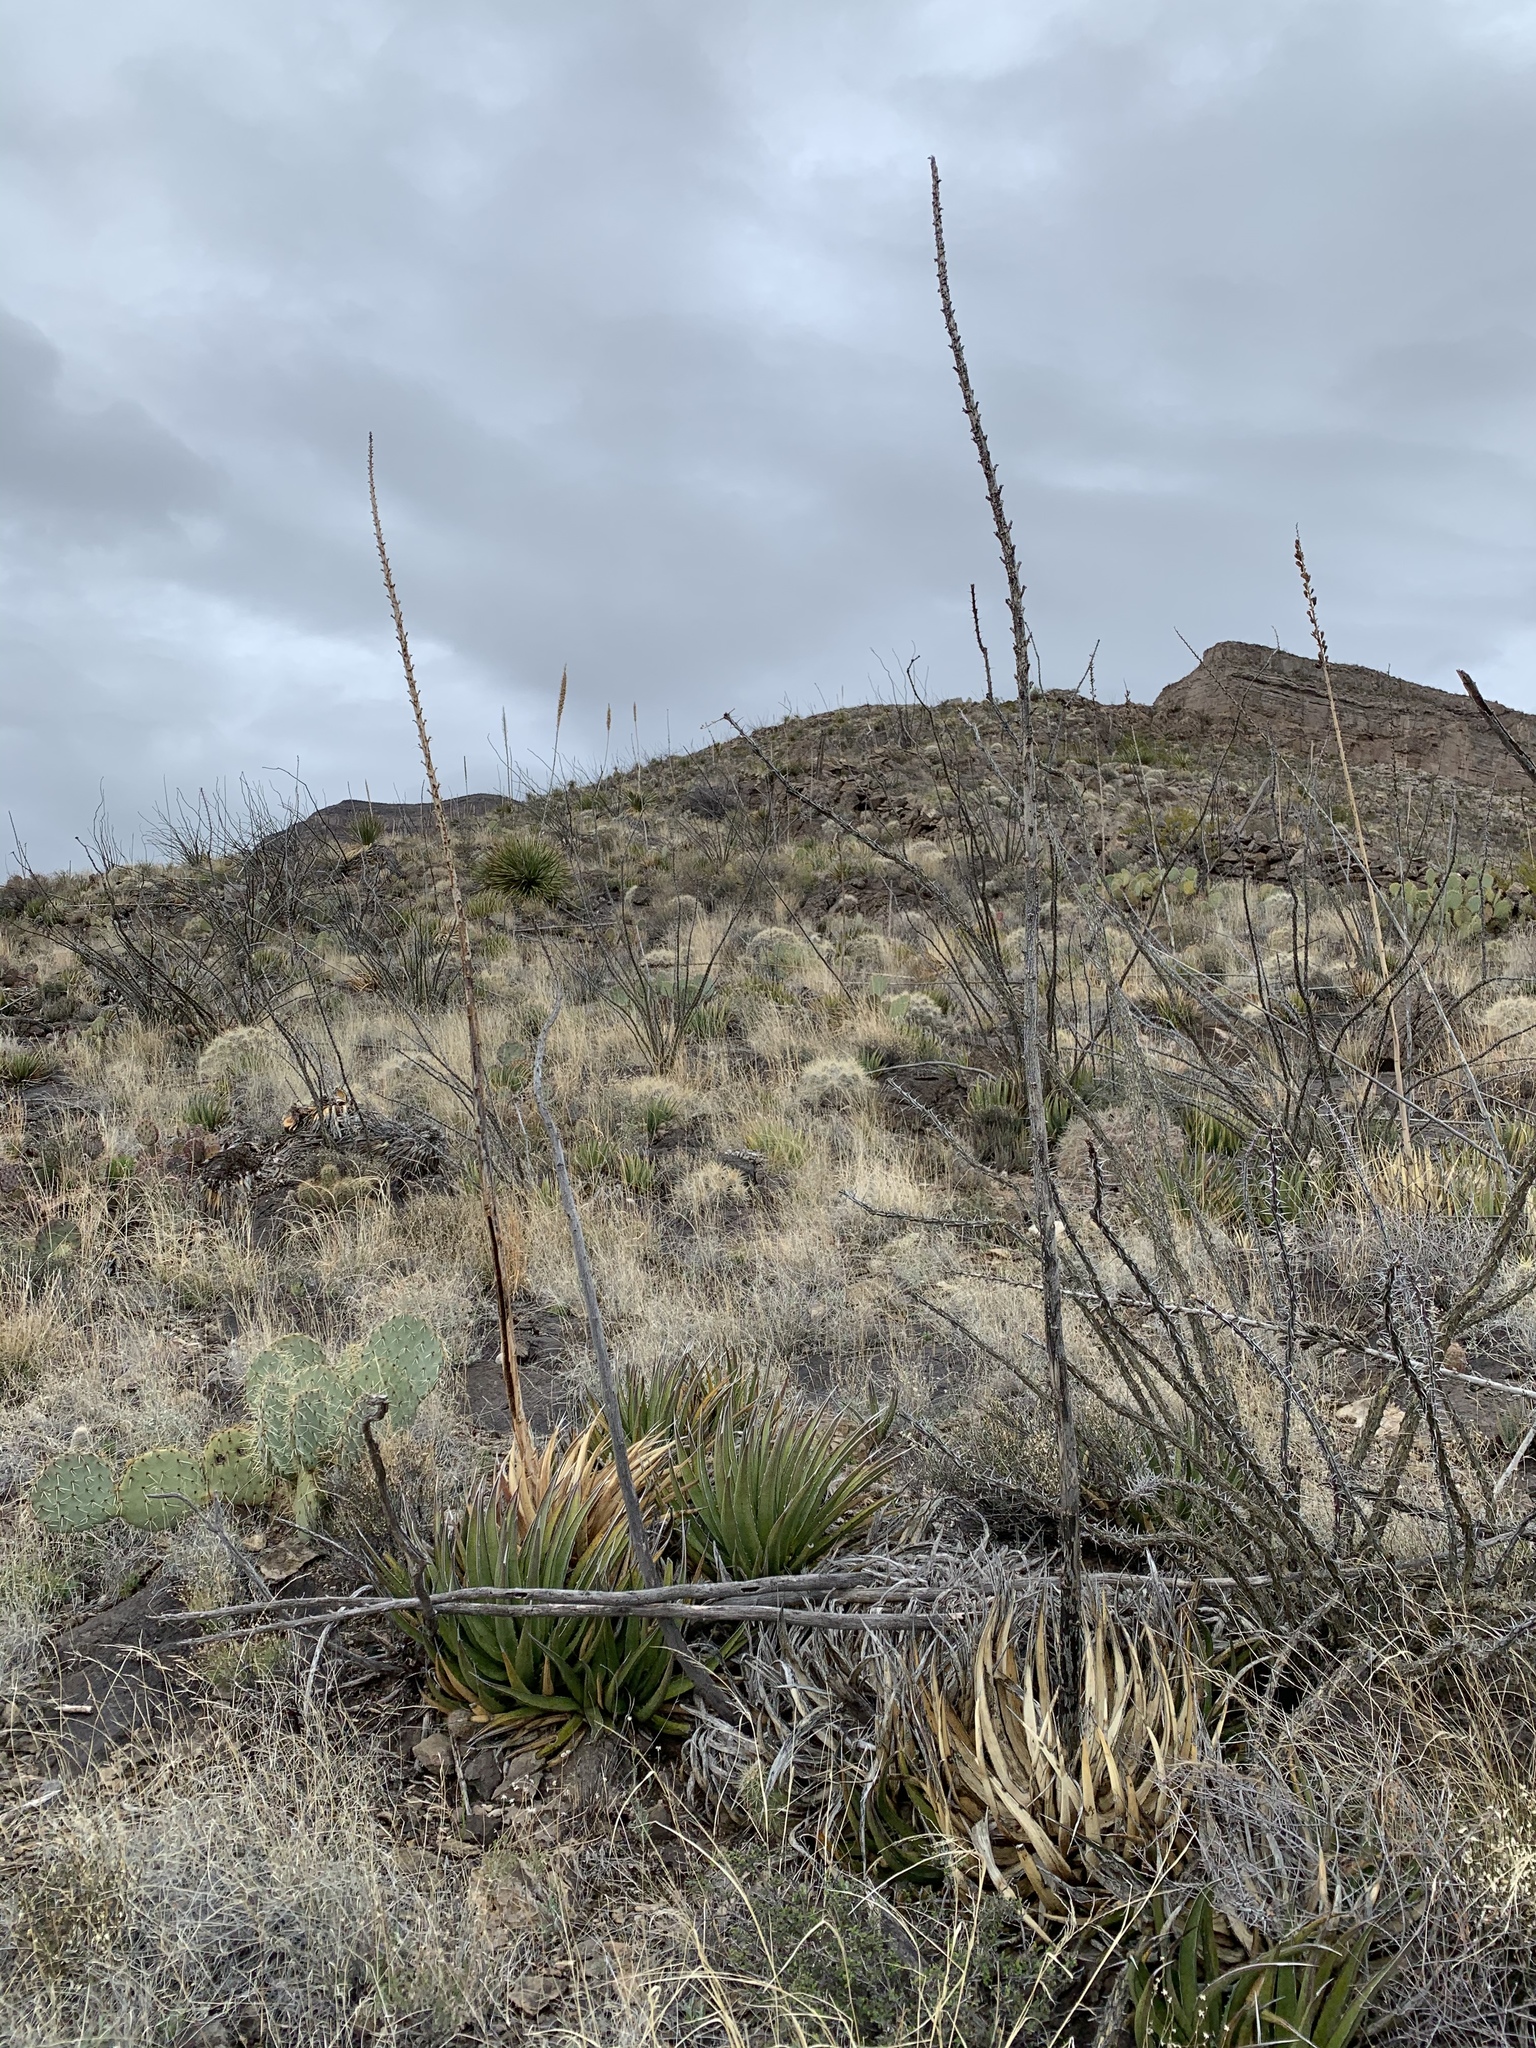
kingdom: Plantae
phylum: Tracheophyta
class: Liliopsida
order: Asparagales
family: Asparagaceae
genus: Agave
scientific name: Agave lechuguilla
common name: Lecheguilla agave
